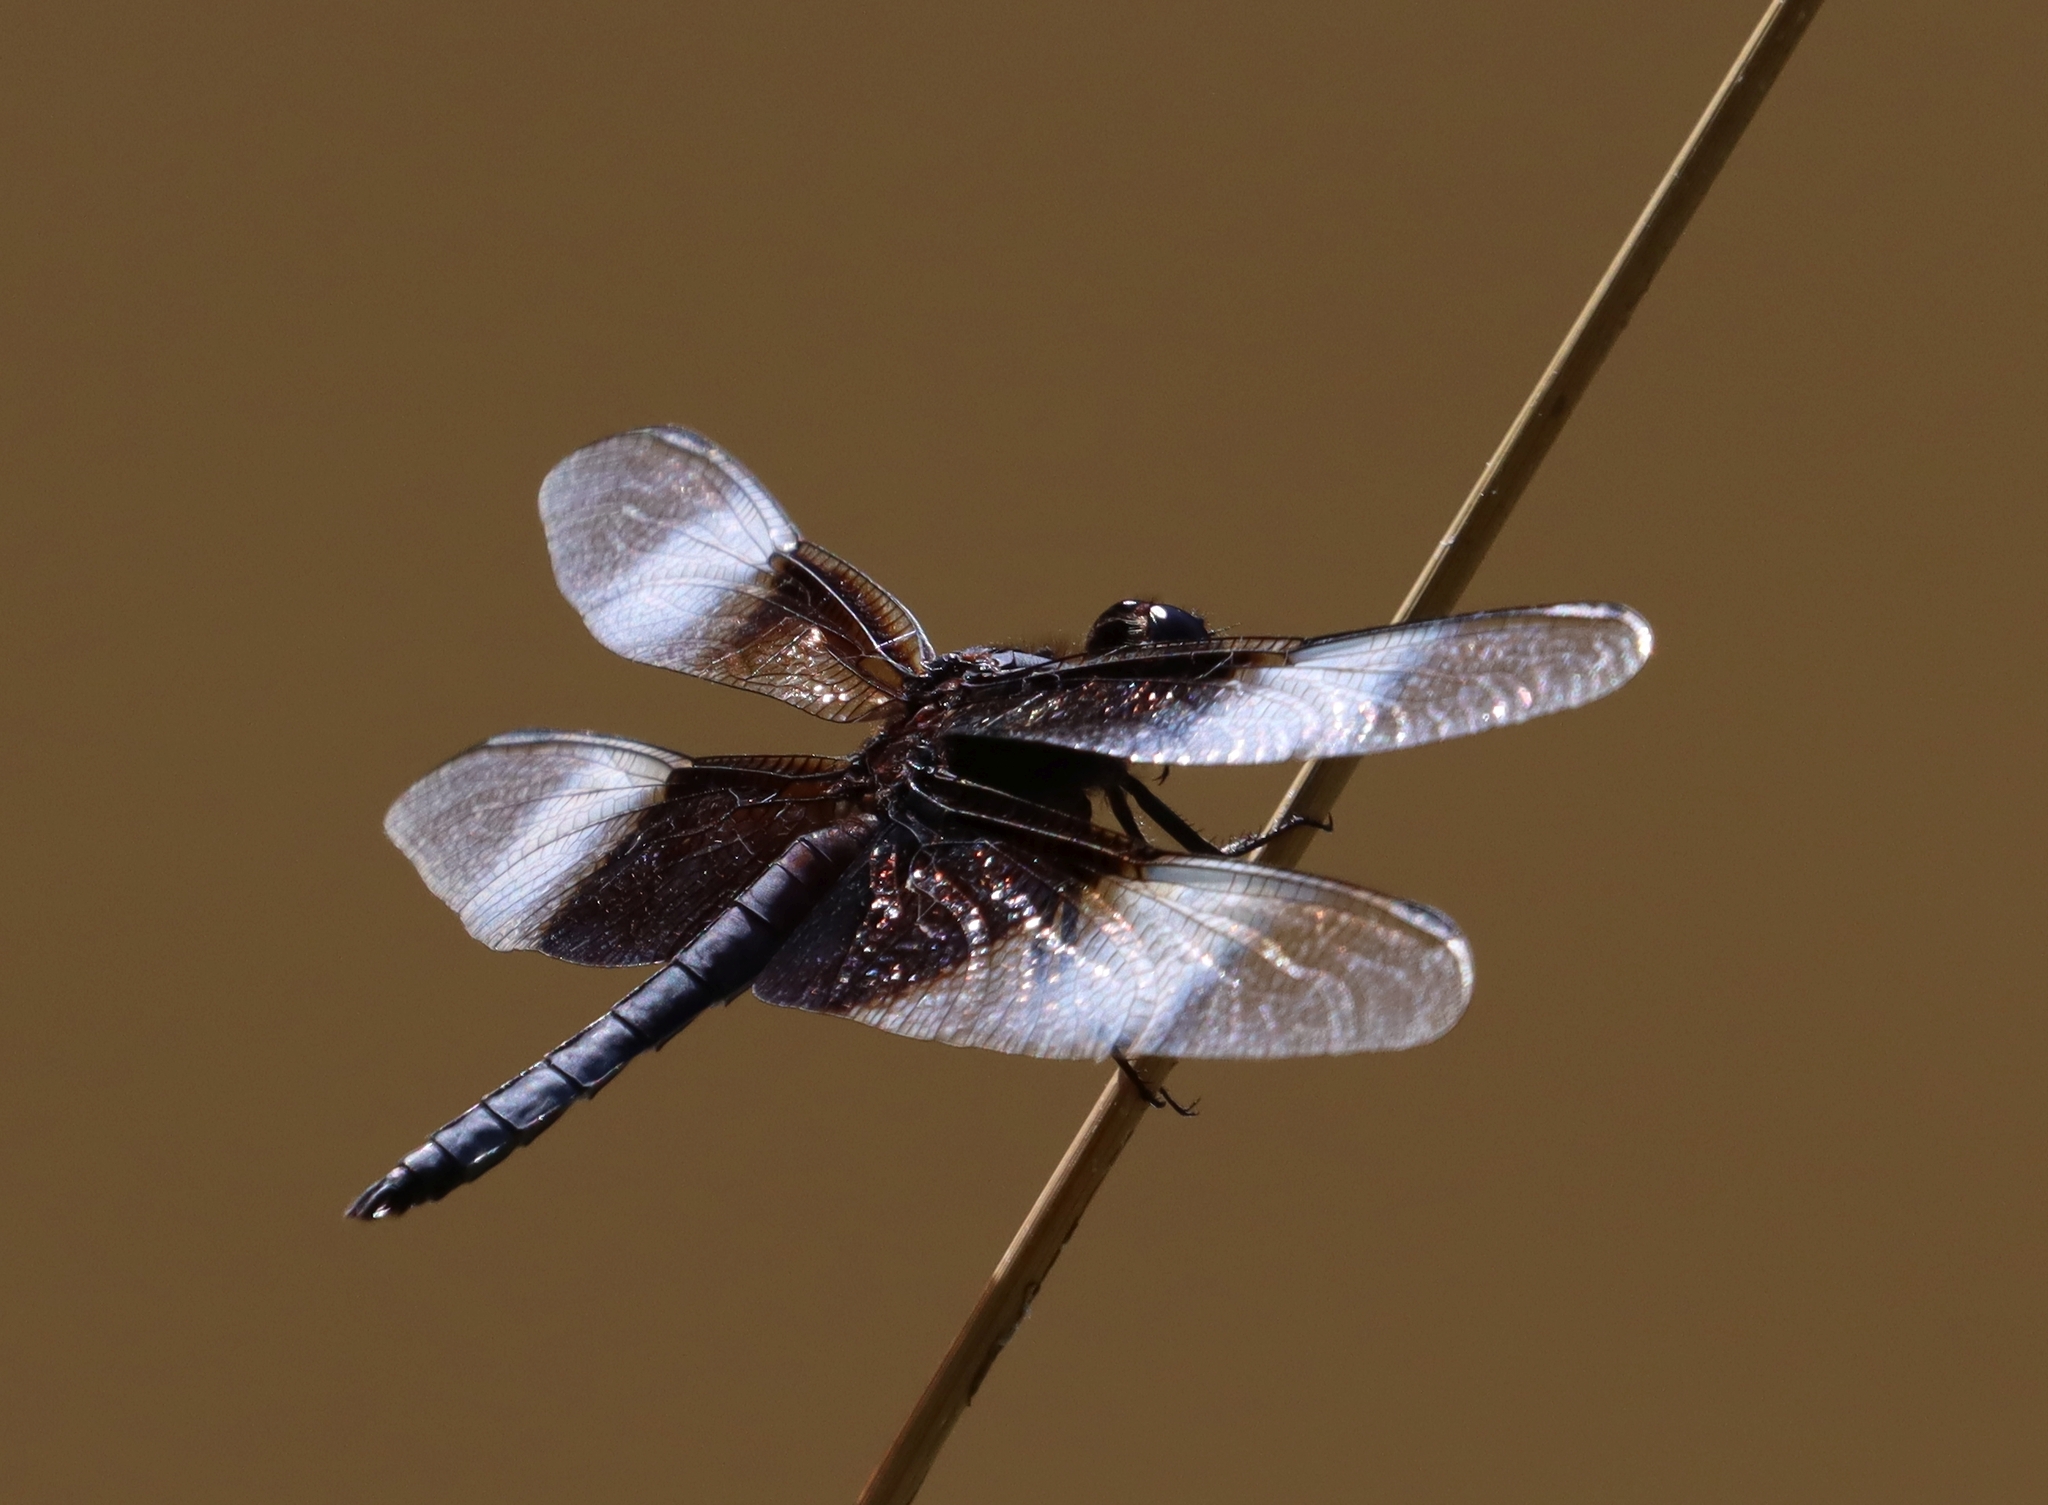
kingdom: Animalia
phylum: Arthropoda
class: Insecta
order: Odonata
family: Libellulidae
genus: Libellula
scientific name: Libellula luctuosa
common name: Widow skimmer
